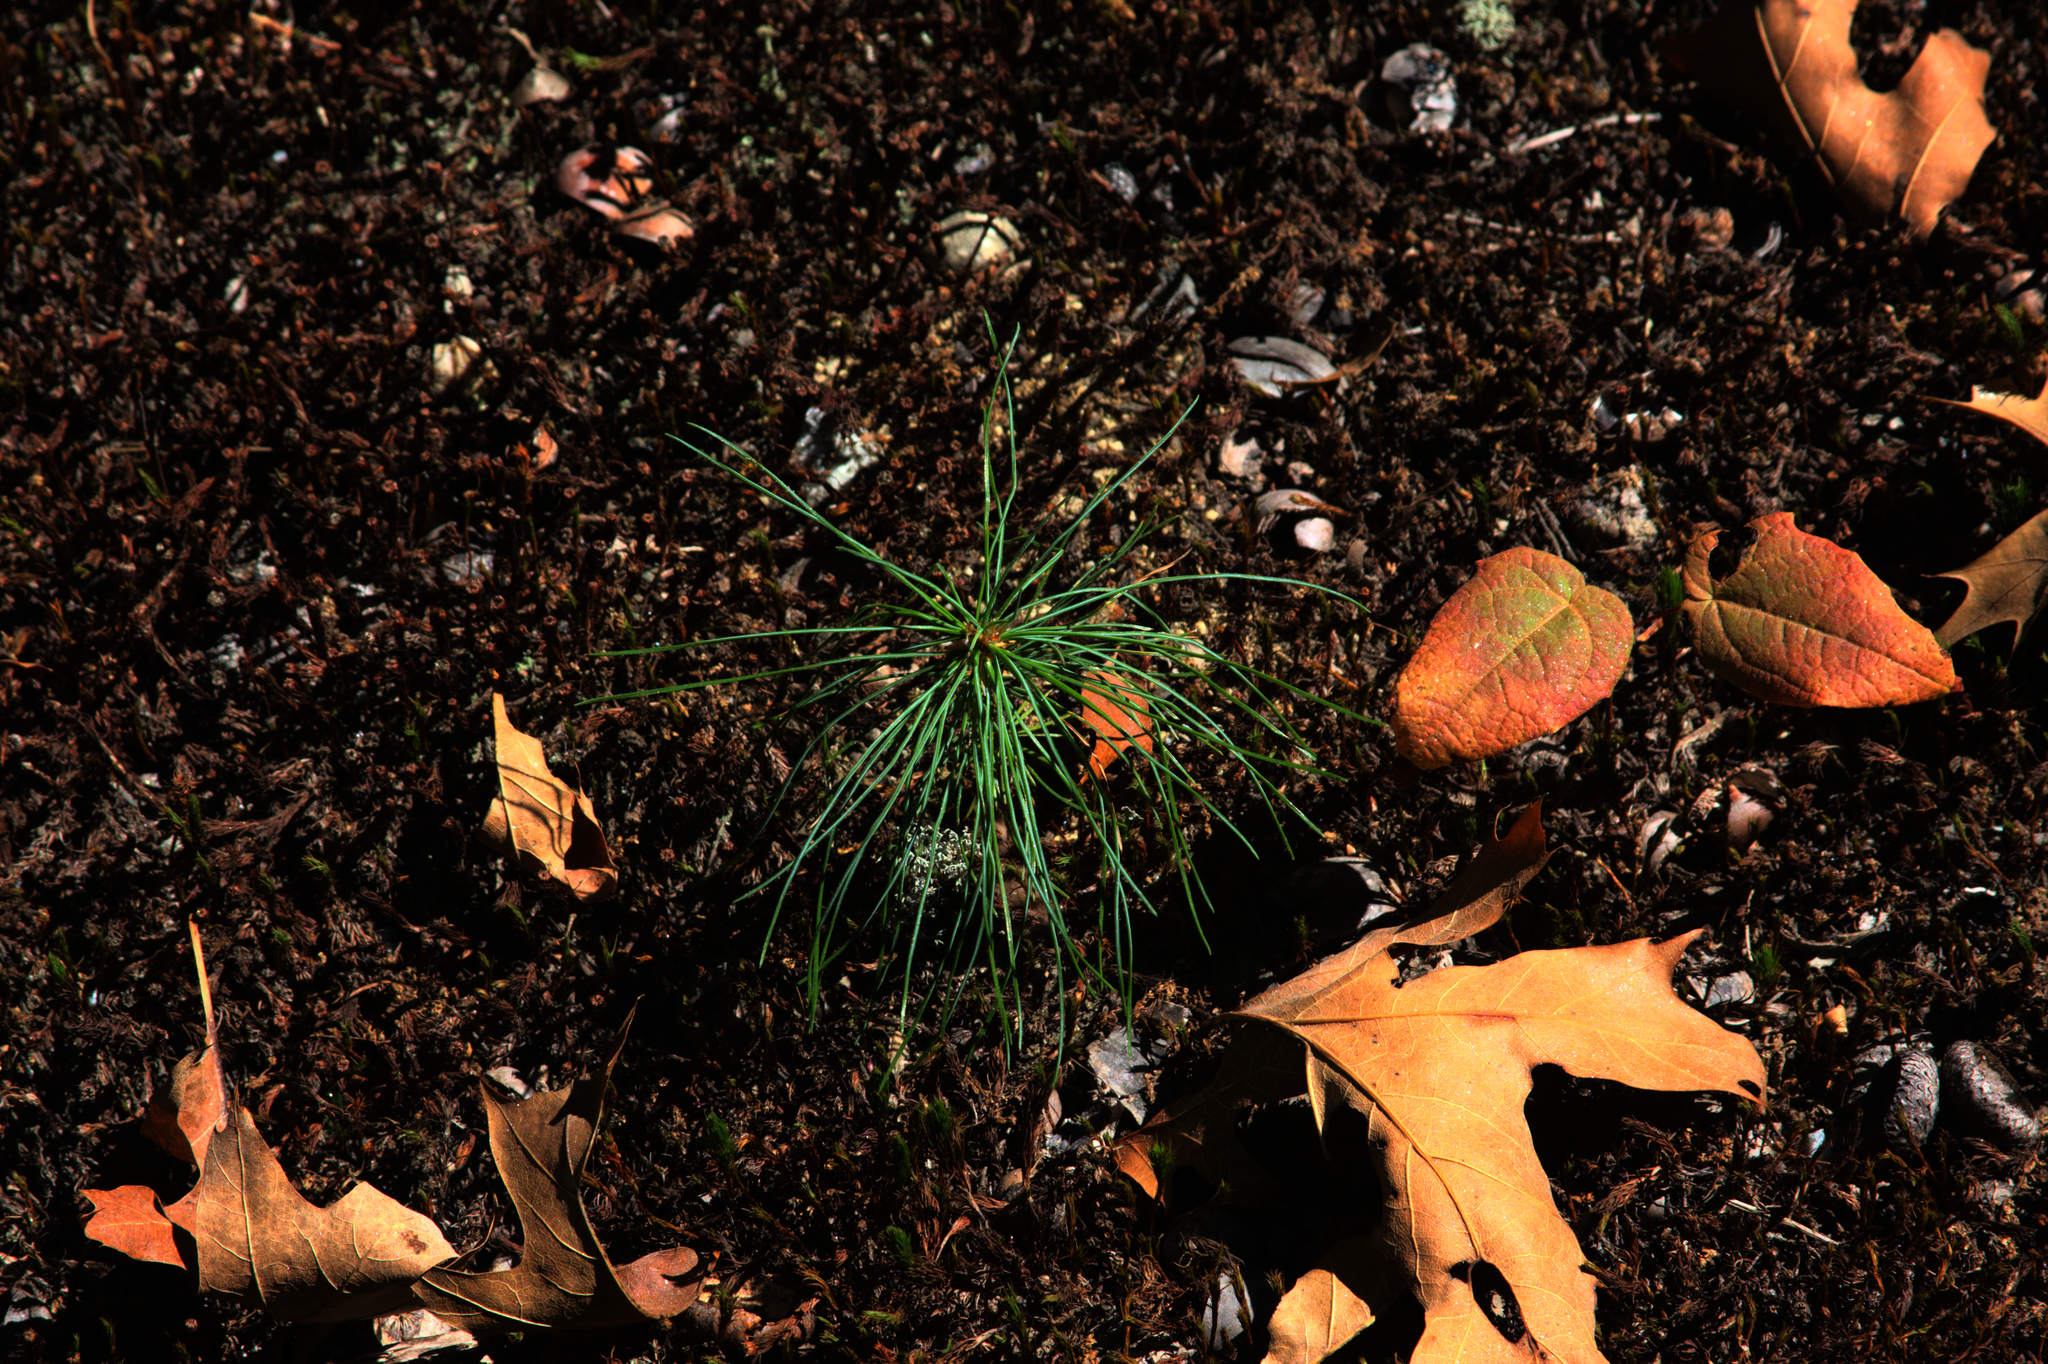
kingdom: Plantae
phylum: Tracheophyta
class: Pinopsida
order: Pinales
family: Pinaceae
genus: Pinus
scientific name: Pinus strobus
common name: Weymouth pine
